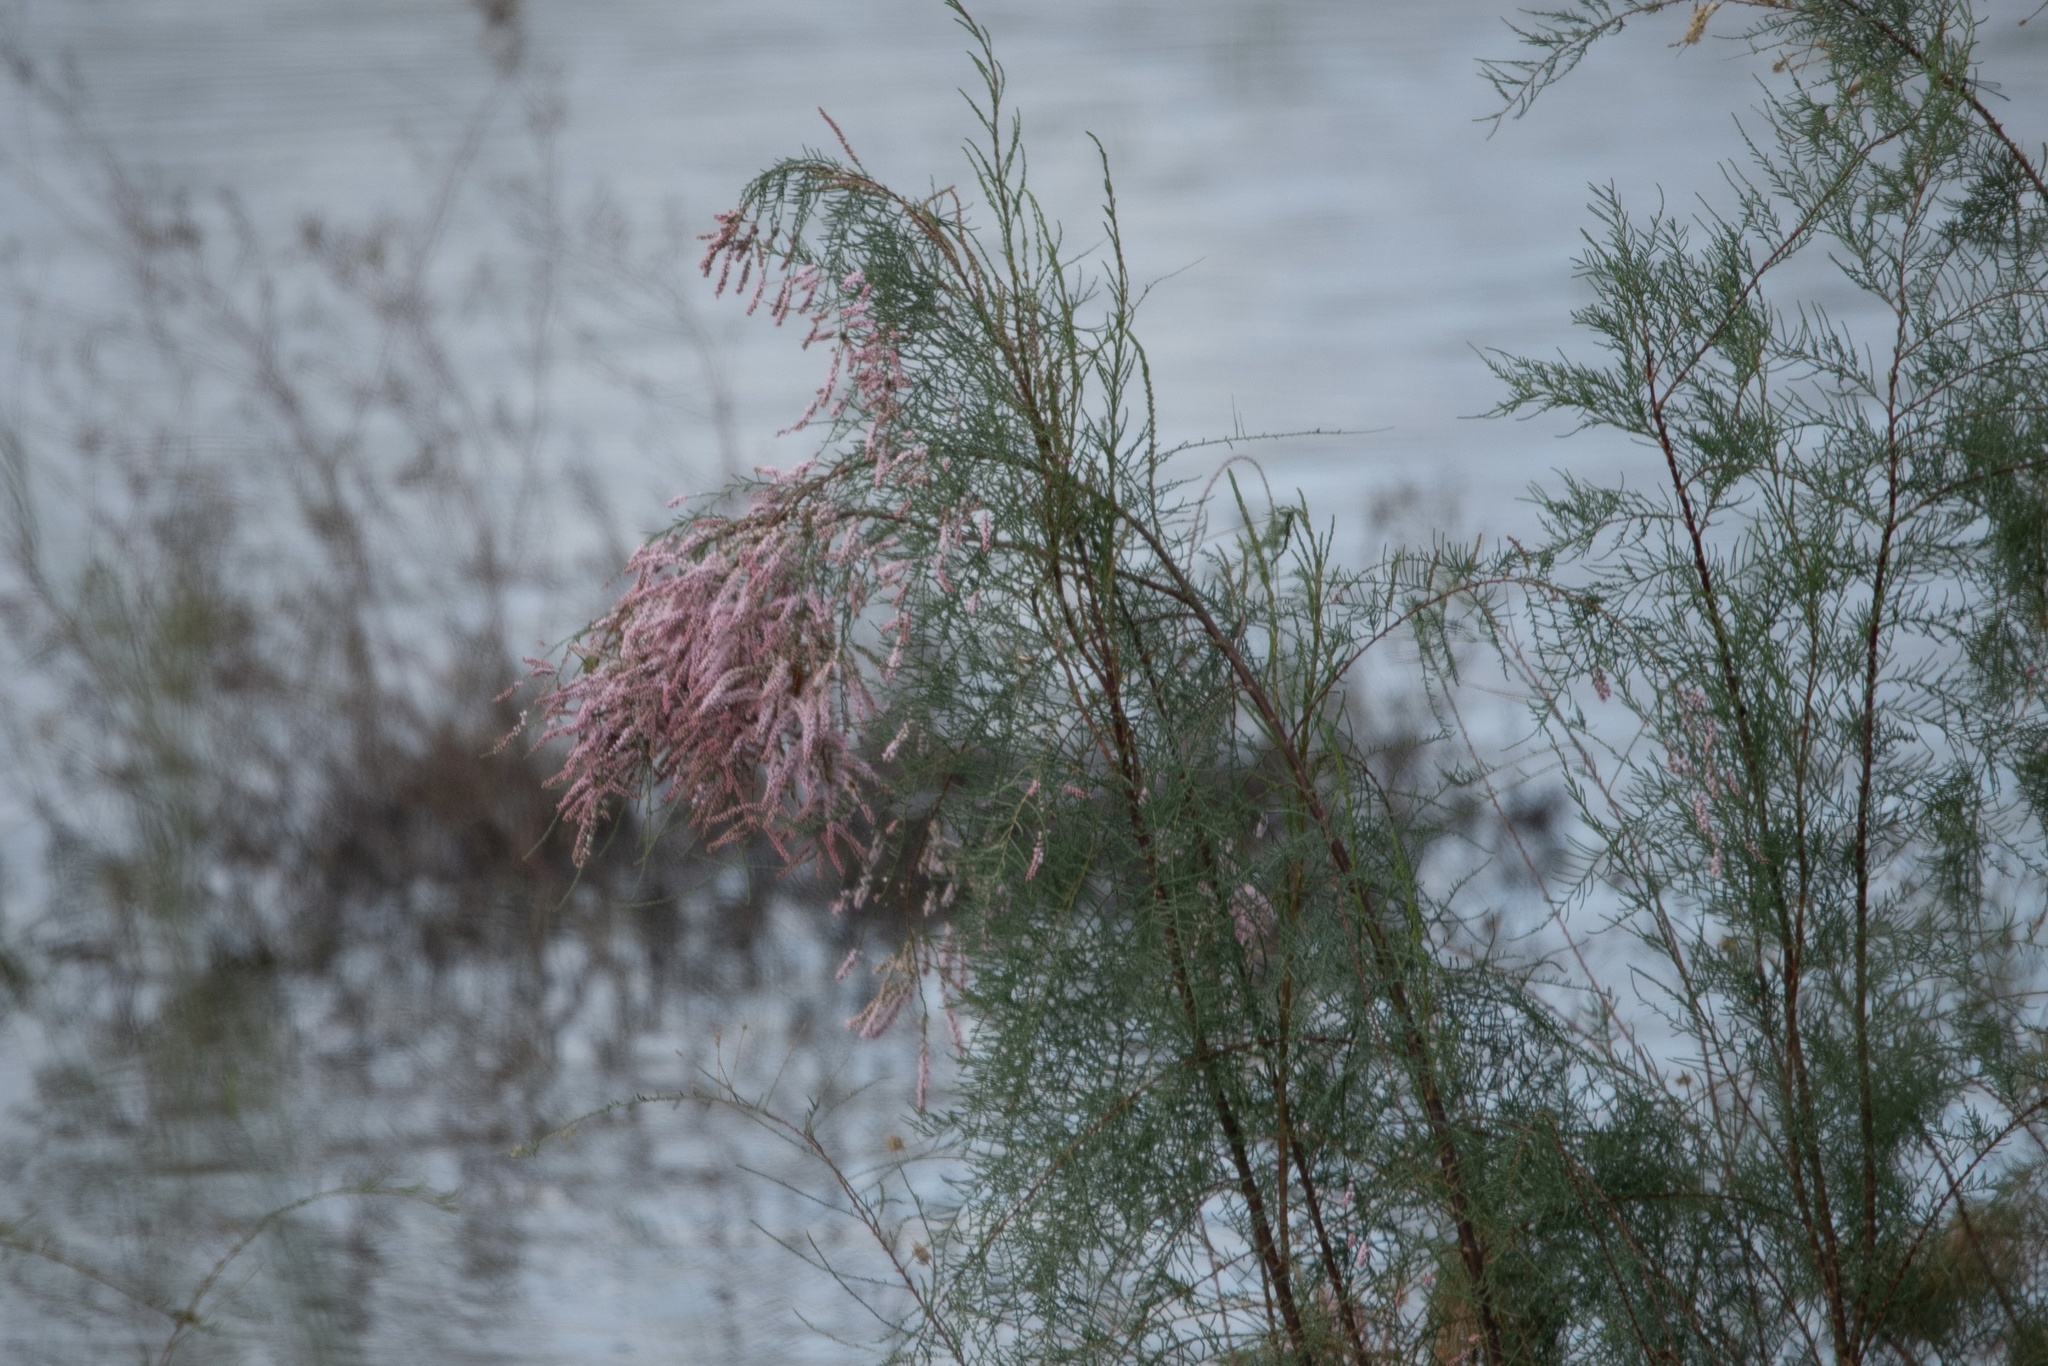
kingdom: Plantae
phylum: Tracheophyta
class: Magnoliopsida
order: Caryophyllales
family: Tamaricaceae
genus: Tamarix
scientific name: Tamarix
